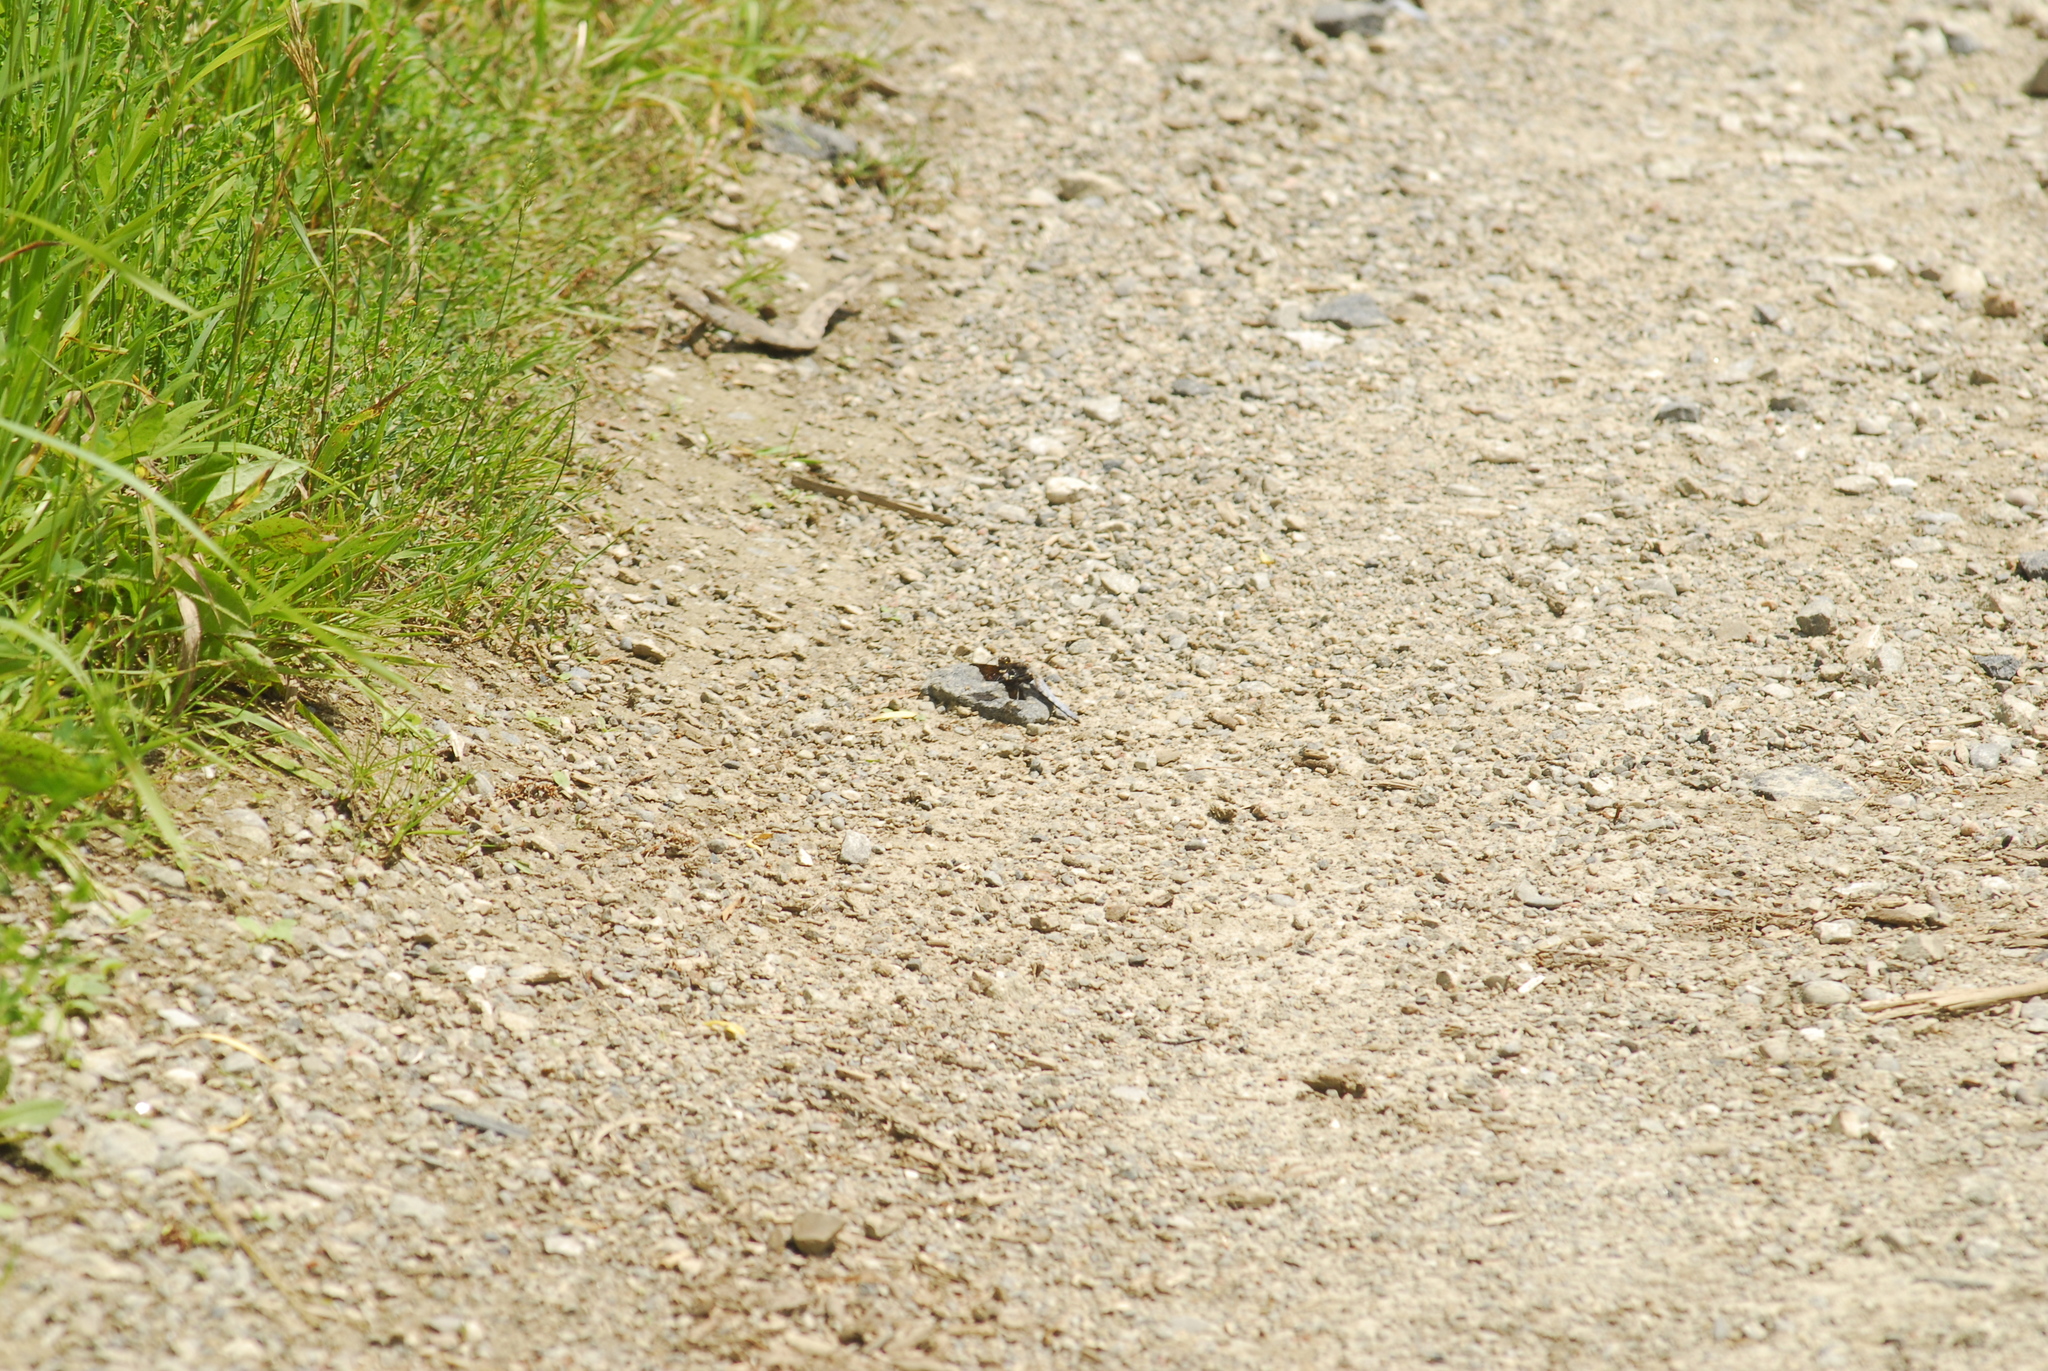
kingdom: Animalia
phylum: Arthropoda
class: Insecta
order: Odonata
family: Libellulidae
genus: Plathemis
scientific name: Plathemis lydia
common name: Common whitetail
